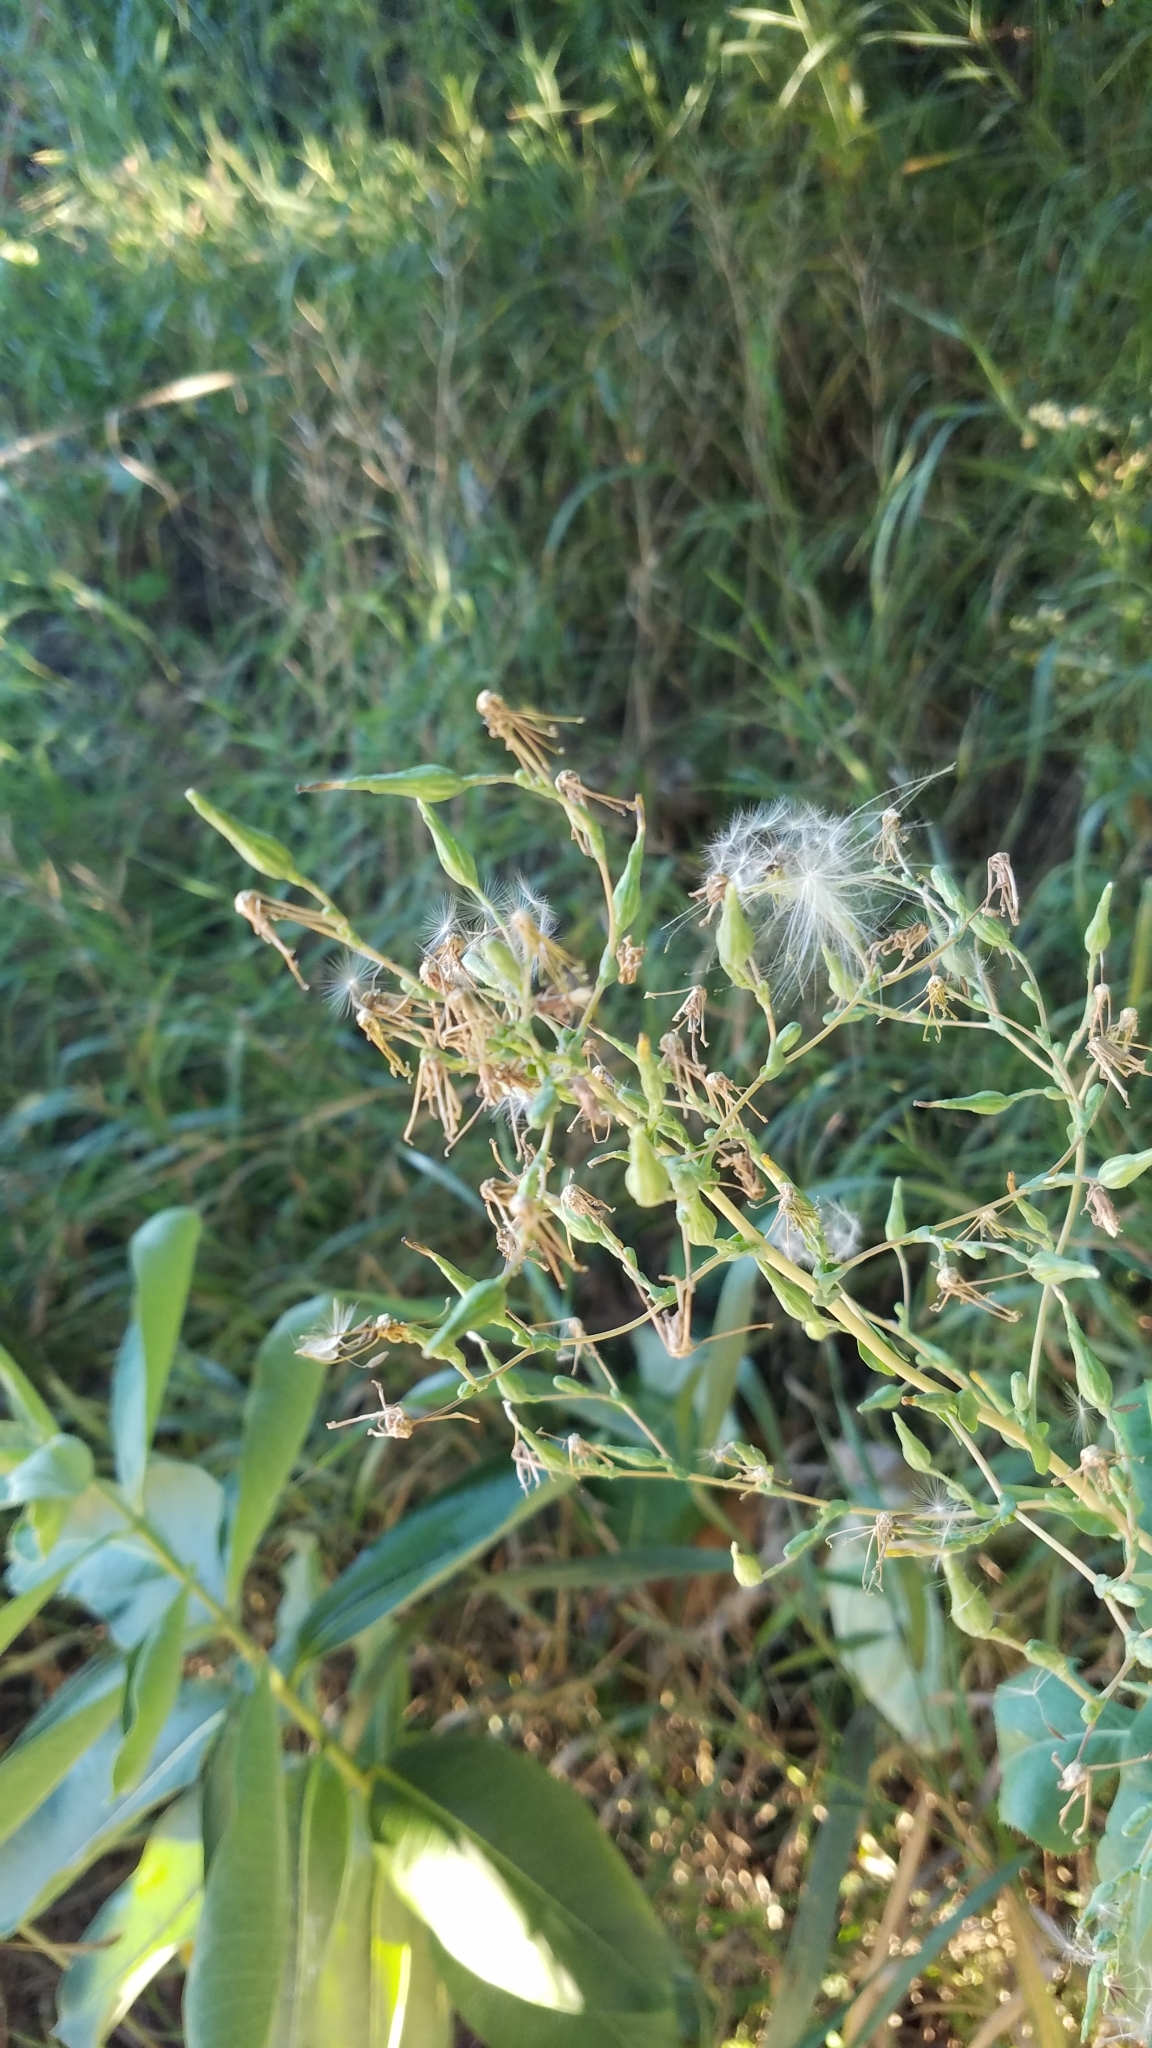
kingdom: Plantae
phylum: Tracheophyta
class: Magnoliopsida
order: Asterales
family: Asteraceae
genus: Cichorium
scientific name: Cichorium intybus
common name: Chicory
